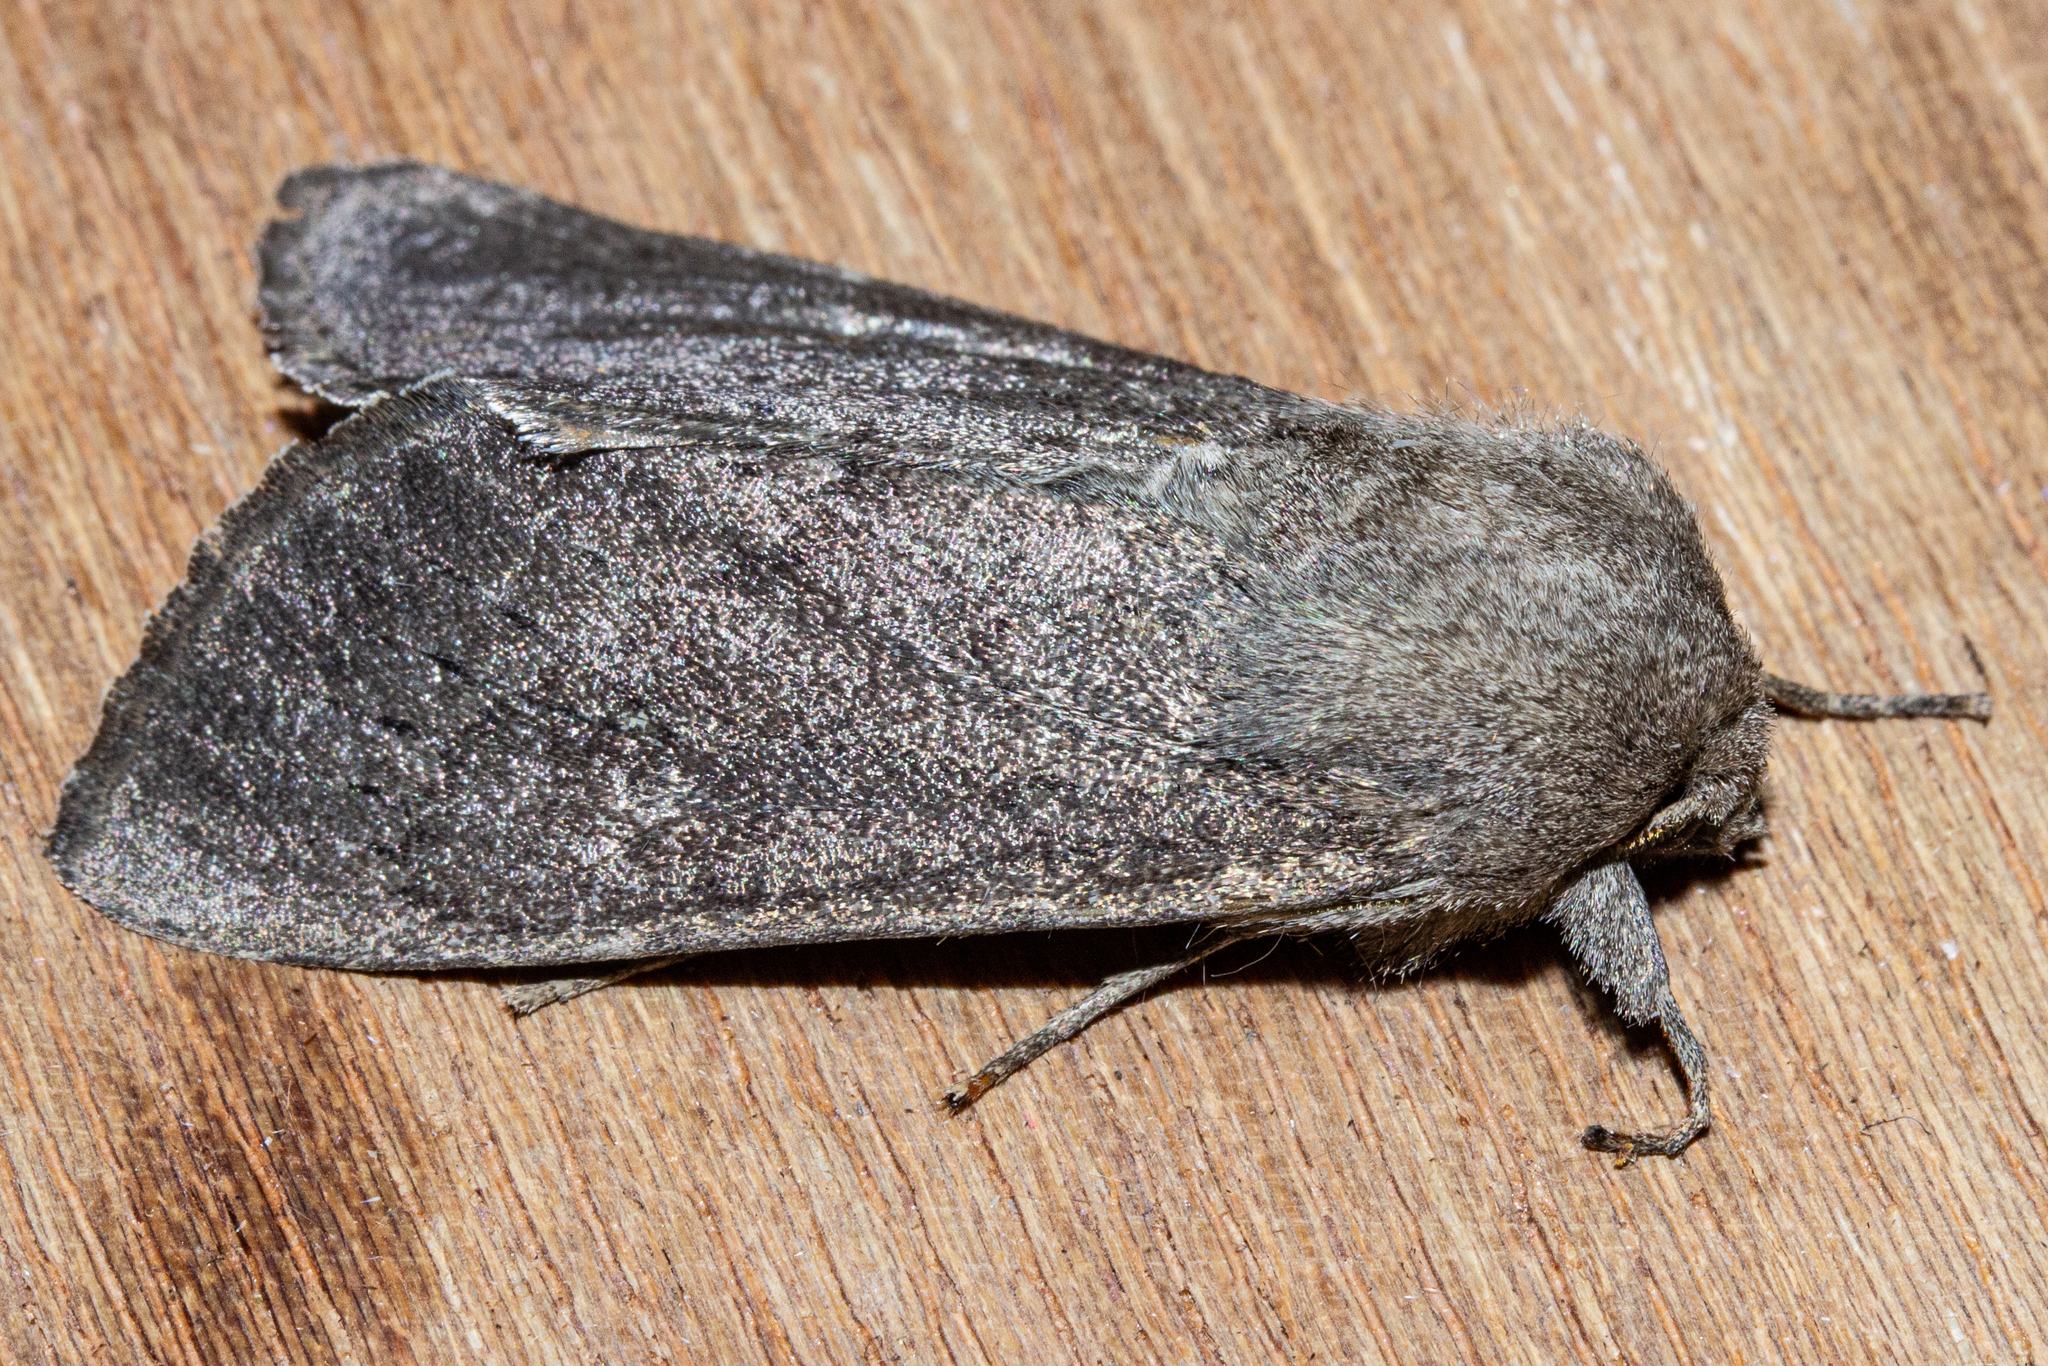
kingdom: Animalia
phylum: Arthropoda
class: Insecta
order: Lepidoptera
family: Noctuidae
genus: Ichneutica
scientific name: Ichneutica nullifera
